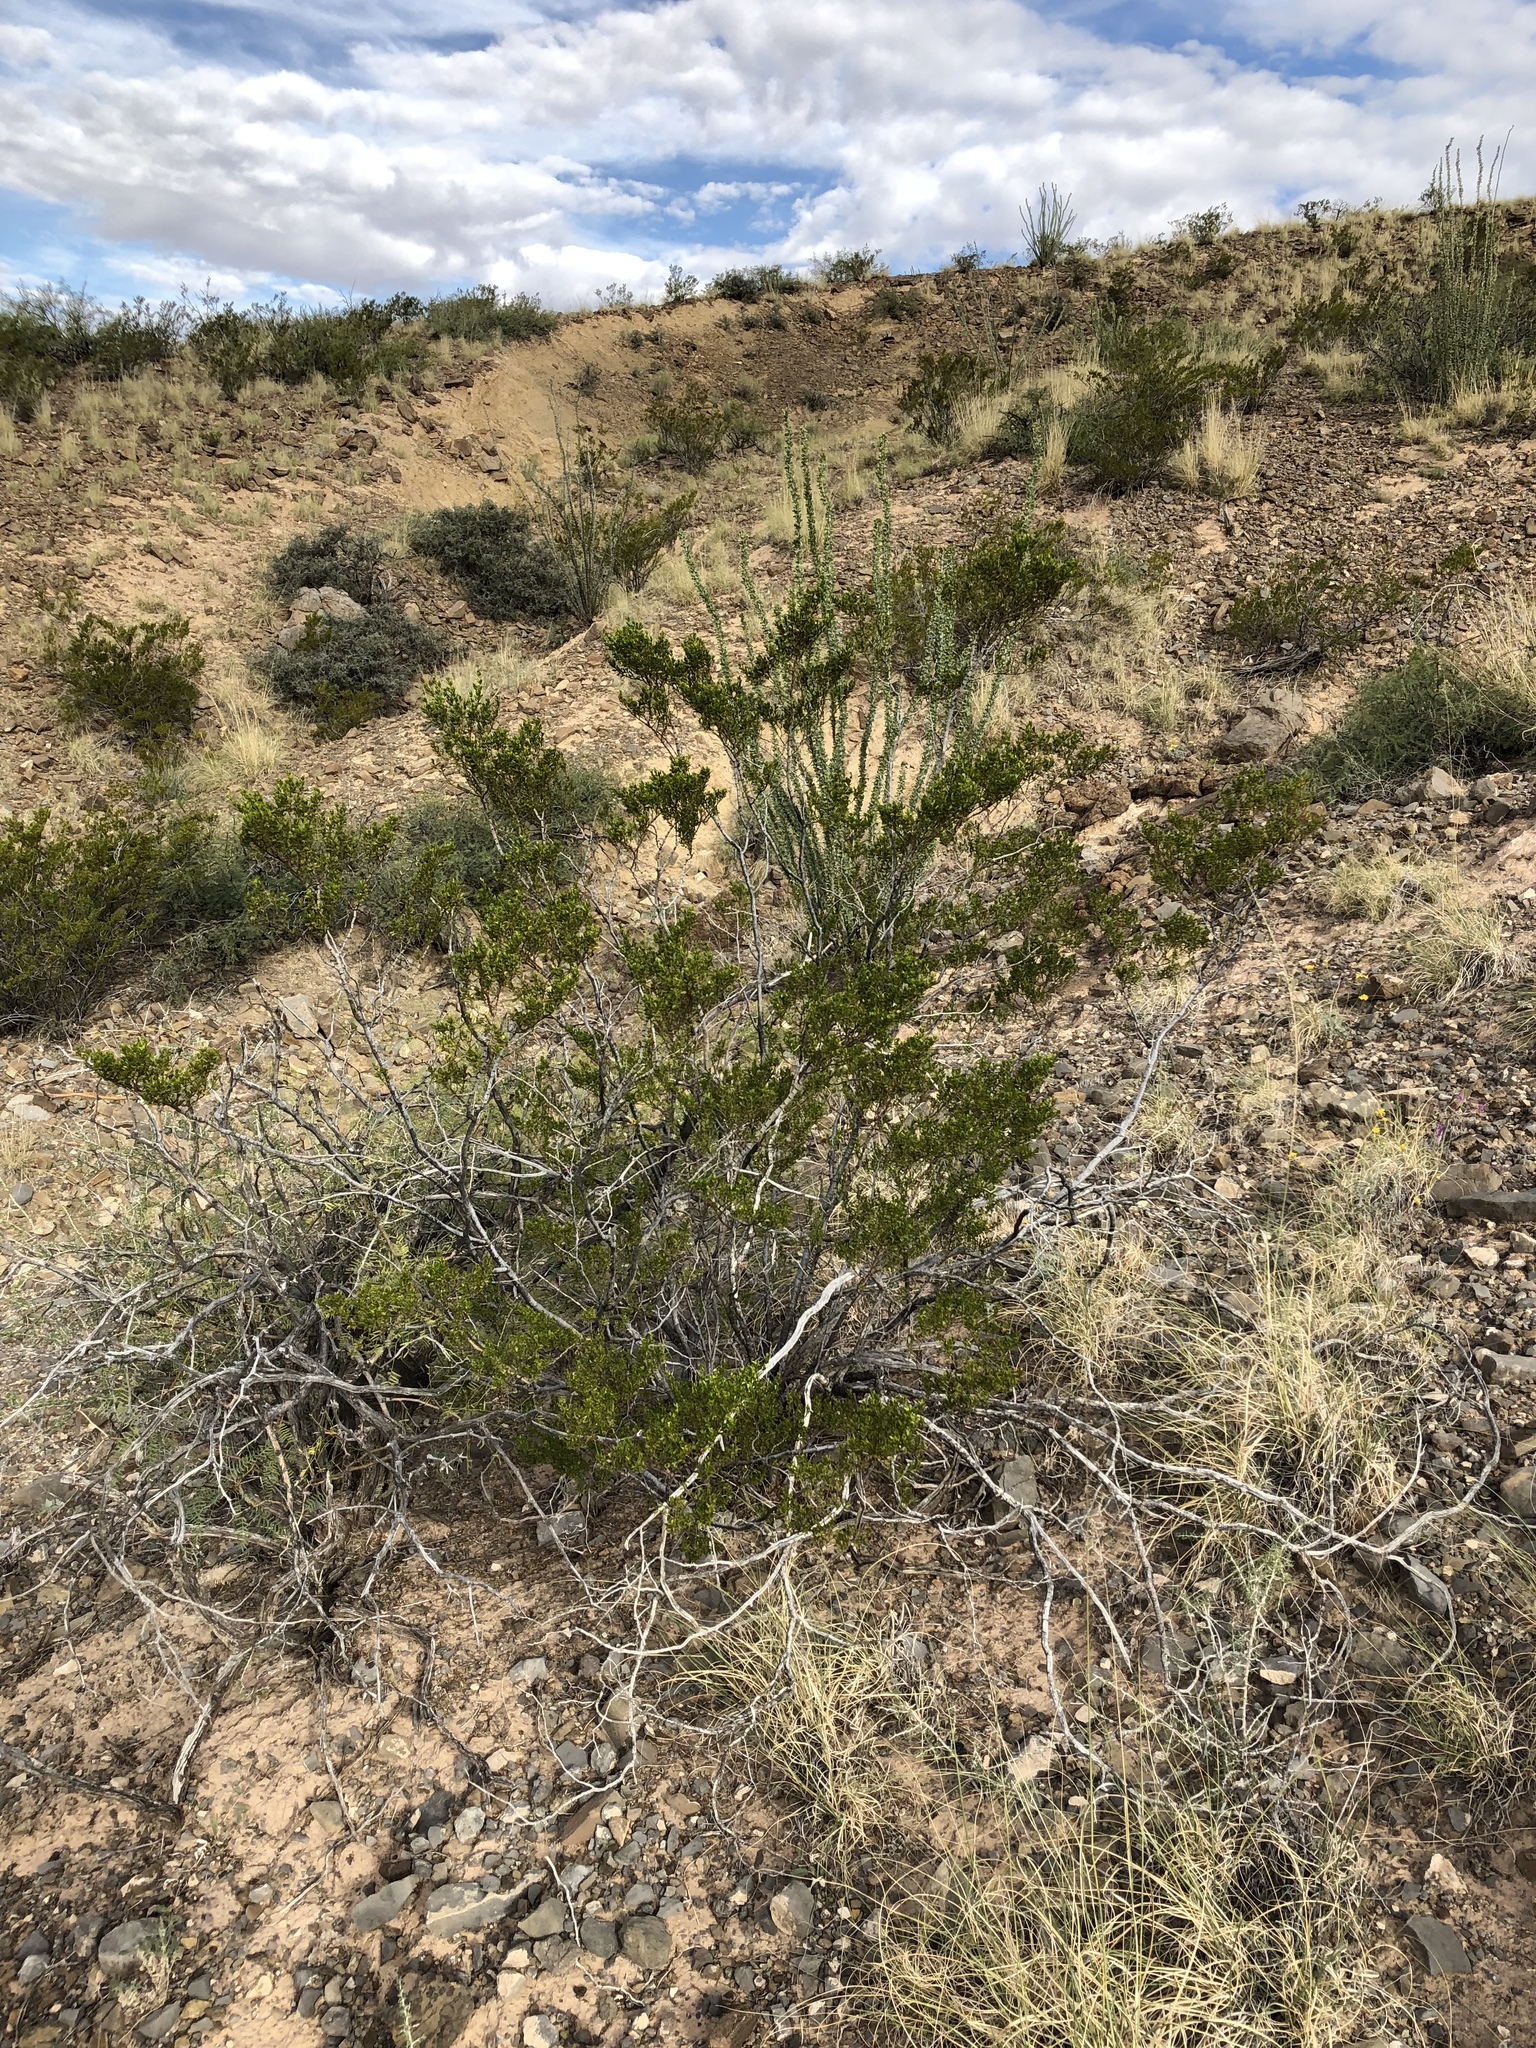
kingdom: Plantae
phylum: Tracheophyta
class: Magnoliopsida
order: Zygophyllales
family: Zygophyllaceae
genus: Larrea
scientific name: Larrea tridentata
